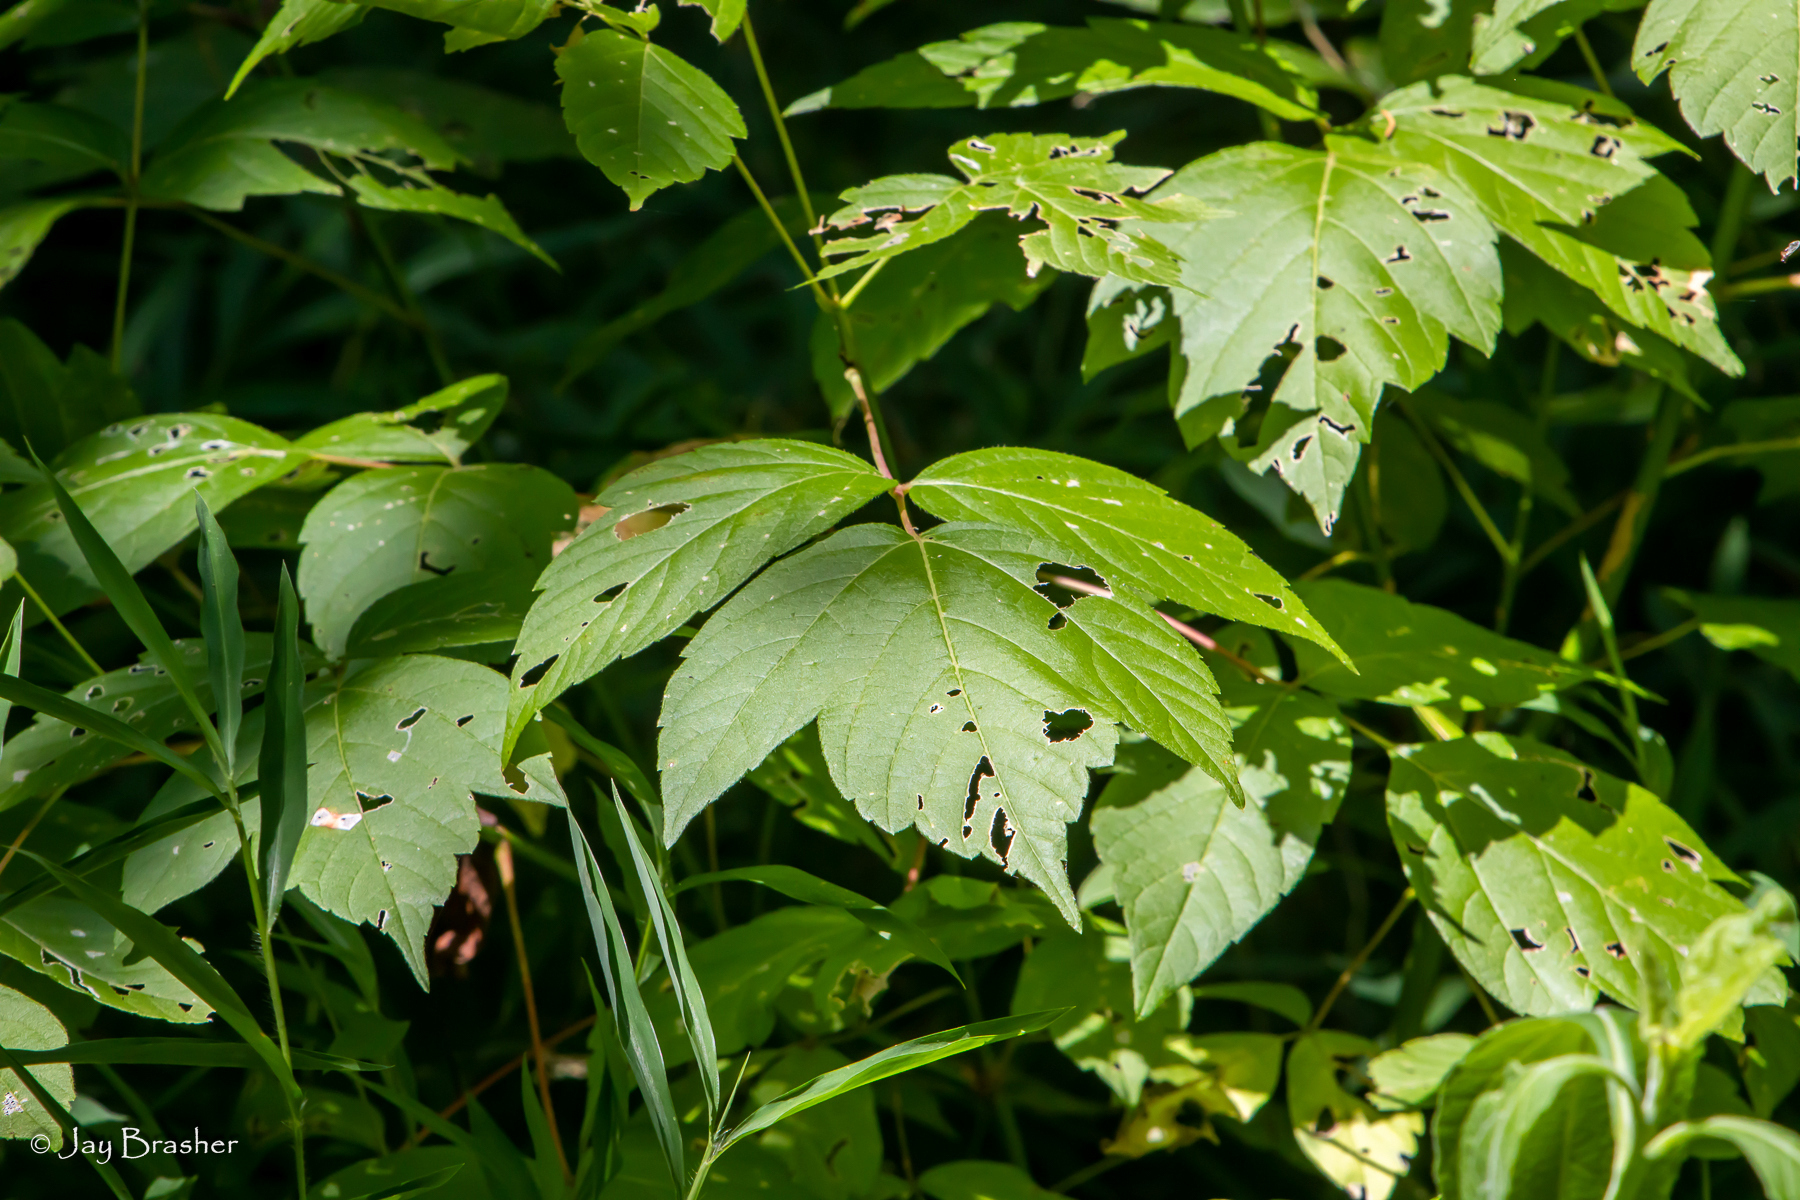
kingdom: Plantae
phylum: Tracheophyta
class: Magnoliopsida
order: Sapindales
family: Sapindaceae
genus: Acer
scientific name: Acer negundo
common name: Ashleaf maple
